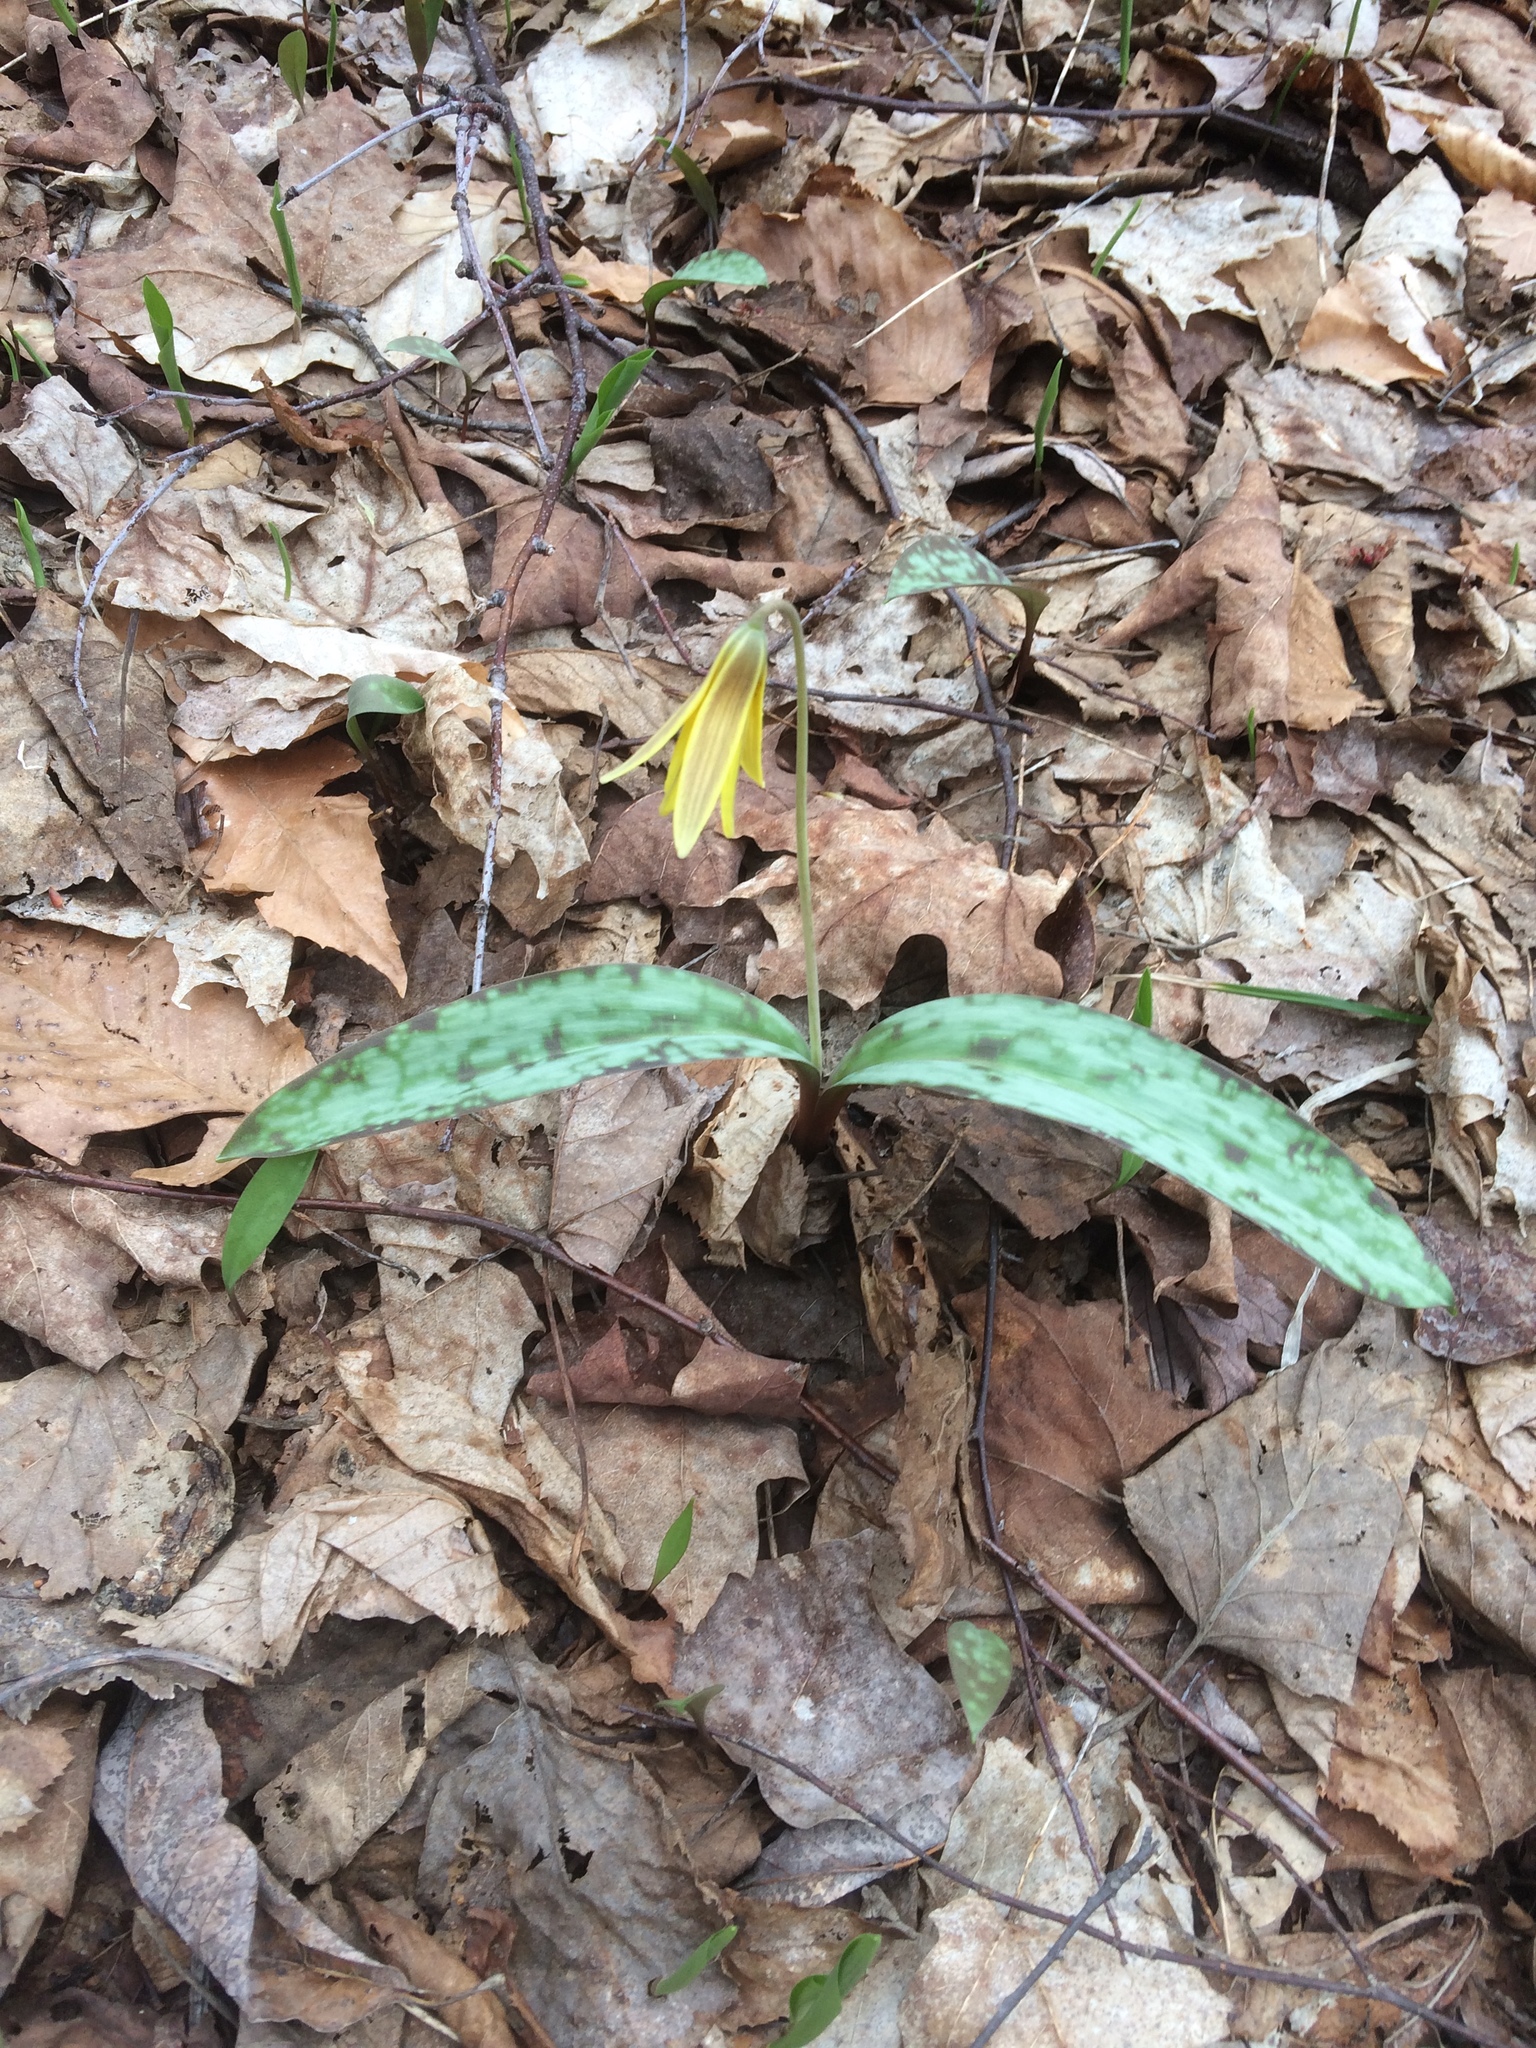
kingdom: Plantae
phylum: Tracheophyta
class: Liliopsida
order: Liliales
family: Liliaceae
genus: Erythronium
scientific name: Erythronium americanum
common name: Yellow adder's-tongue
